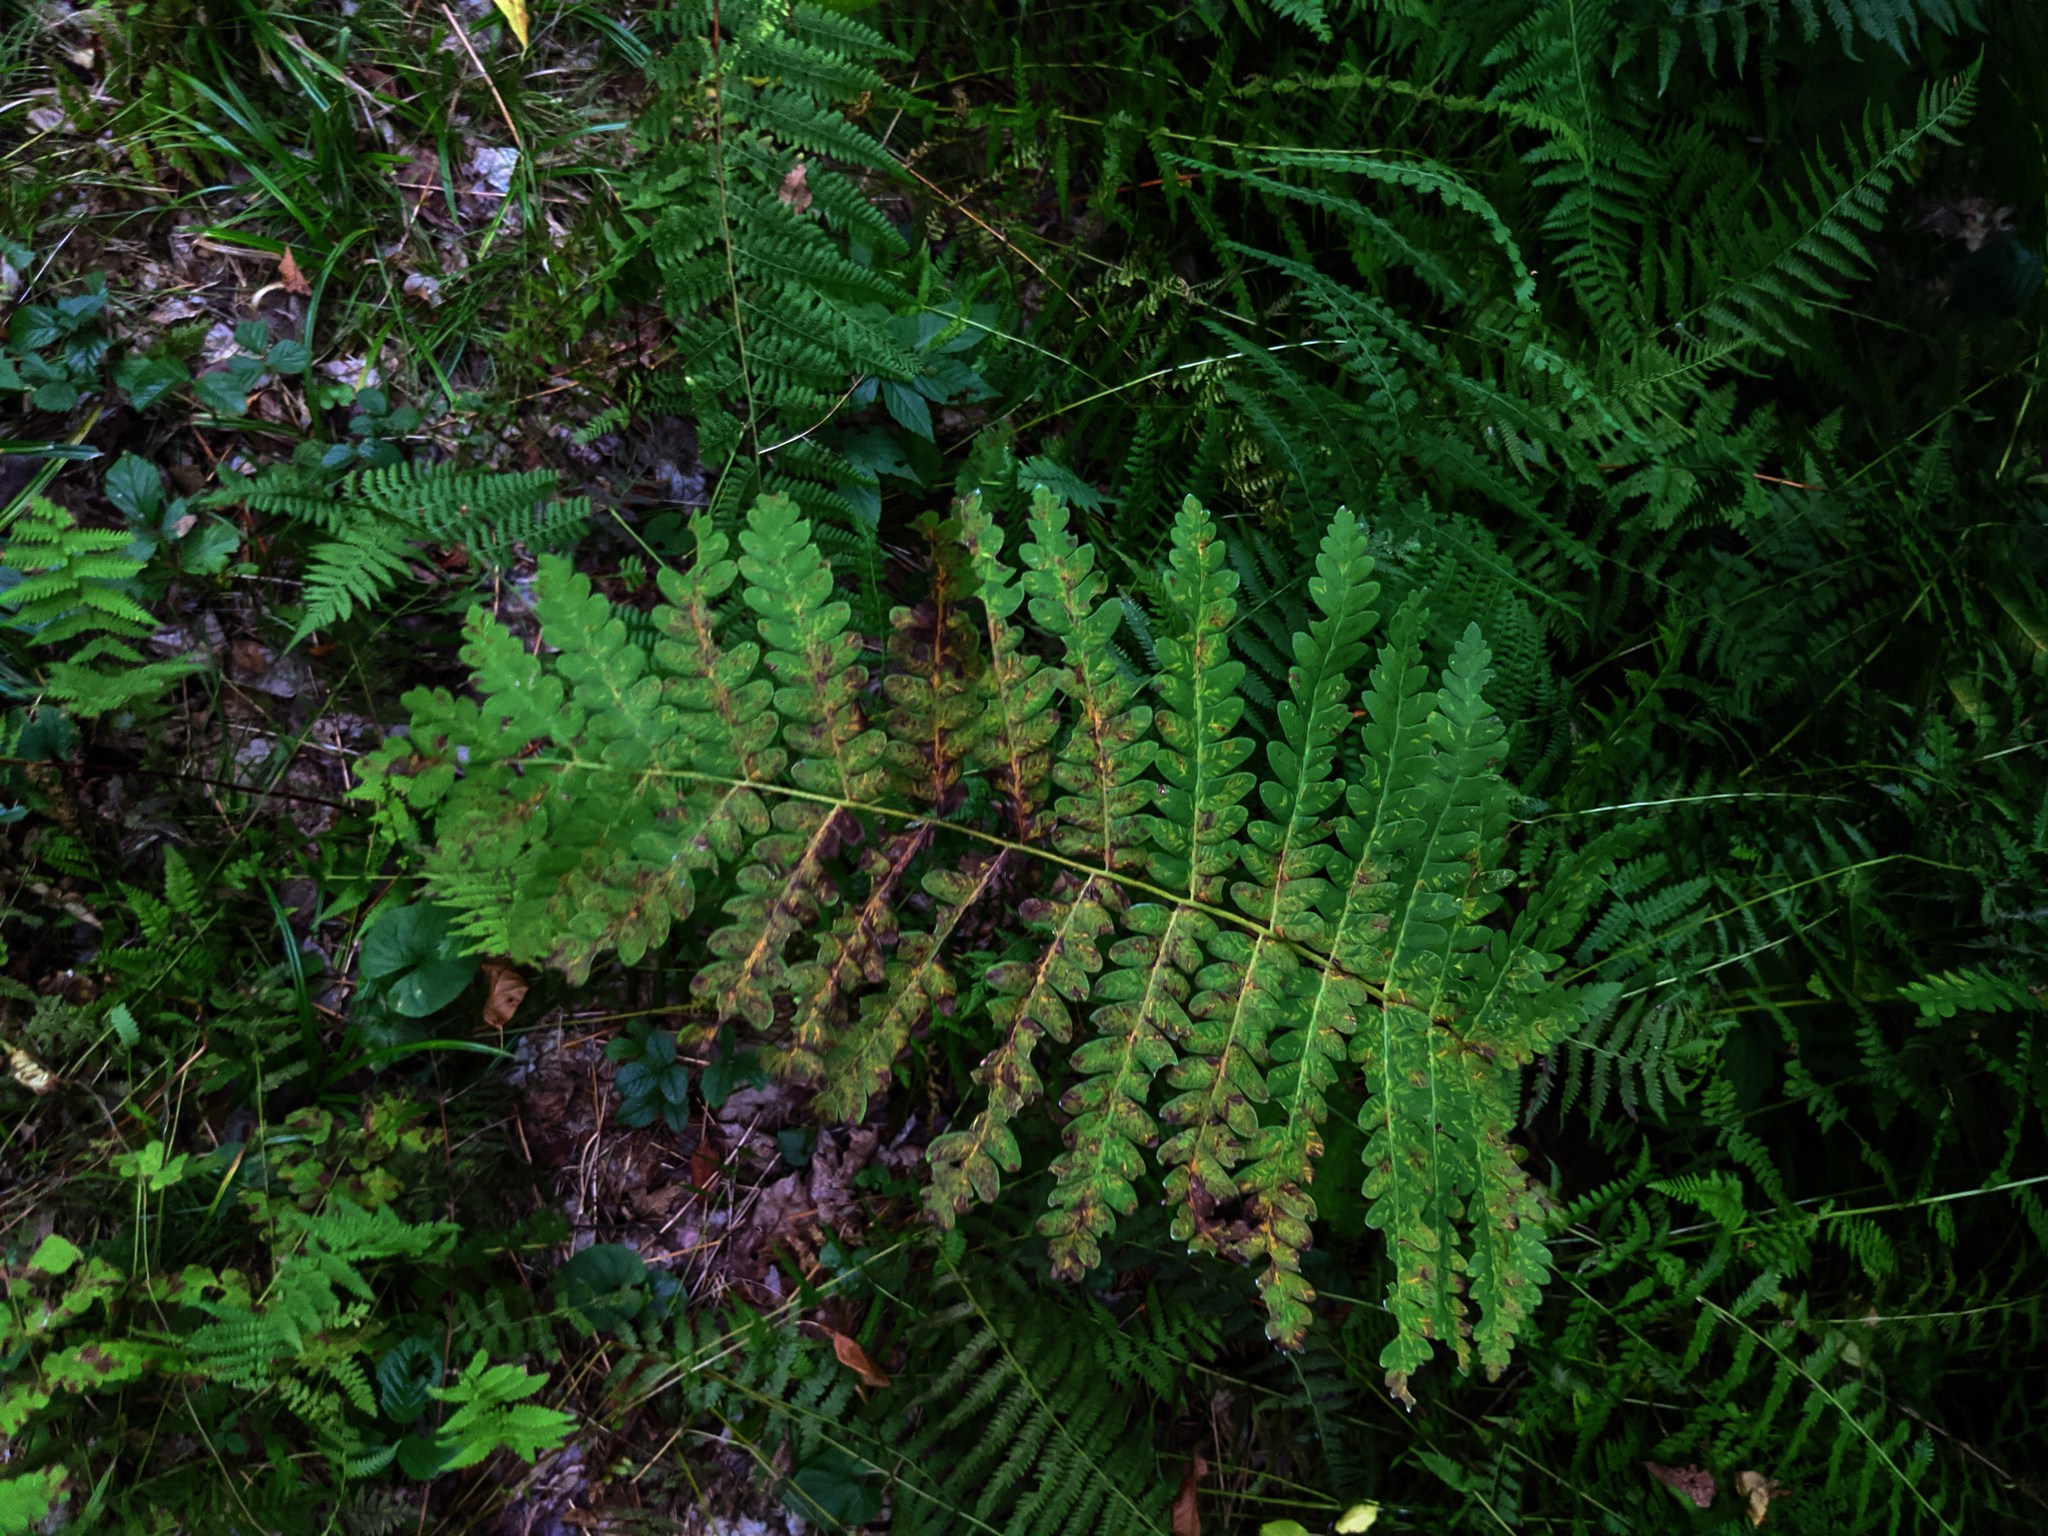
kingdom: Plantae
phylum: Tracheophyta
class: Polypodiopsida
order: Osmundales
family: Osmundaceae
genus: Claytosmunda
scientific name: Claytosmunda claytoniana
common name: Clayton's fern
